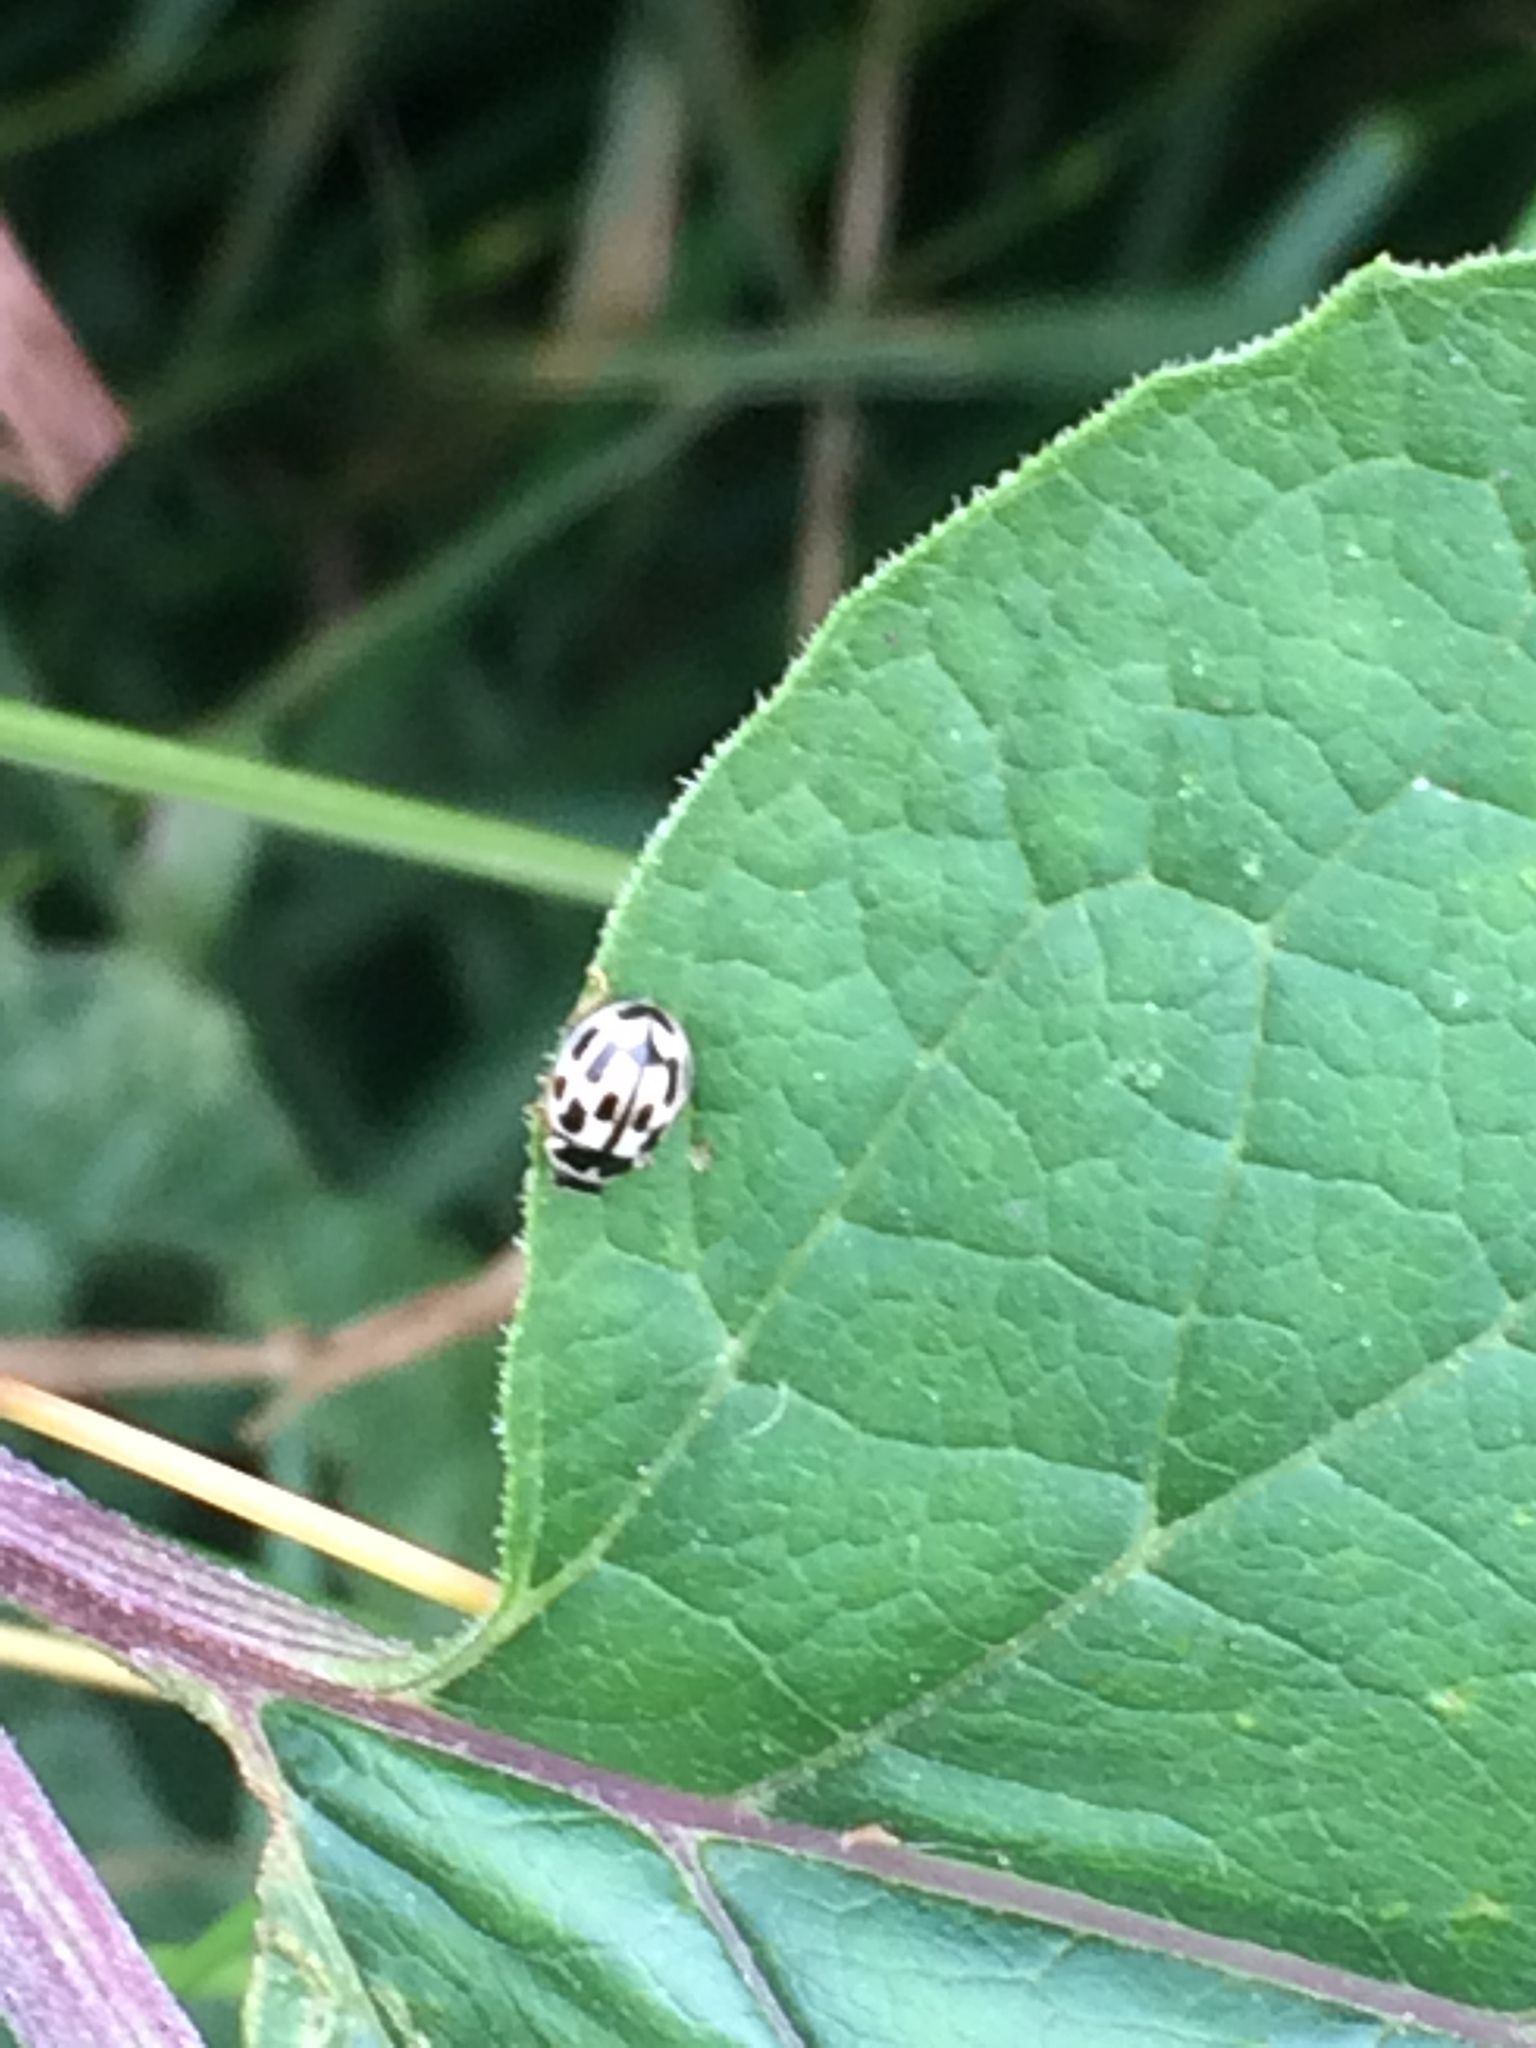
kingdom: Animalia
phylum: Arthropoda
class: Insecta
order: Coleoptera
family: Coccinellidae
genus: Propylaea
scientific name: Propylaea quatuordecimpunctata
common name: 14-spotted ladybird beetle
